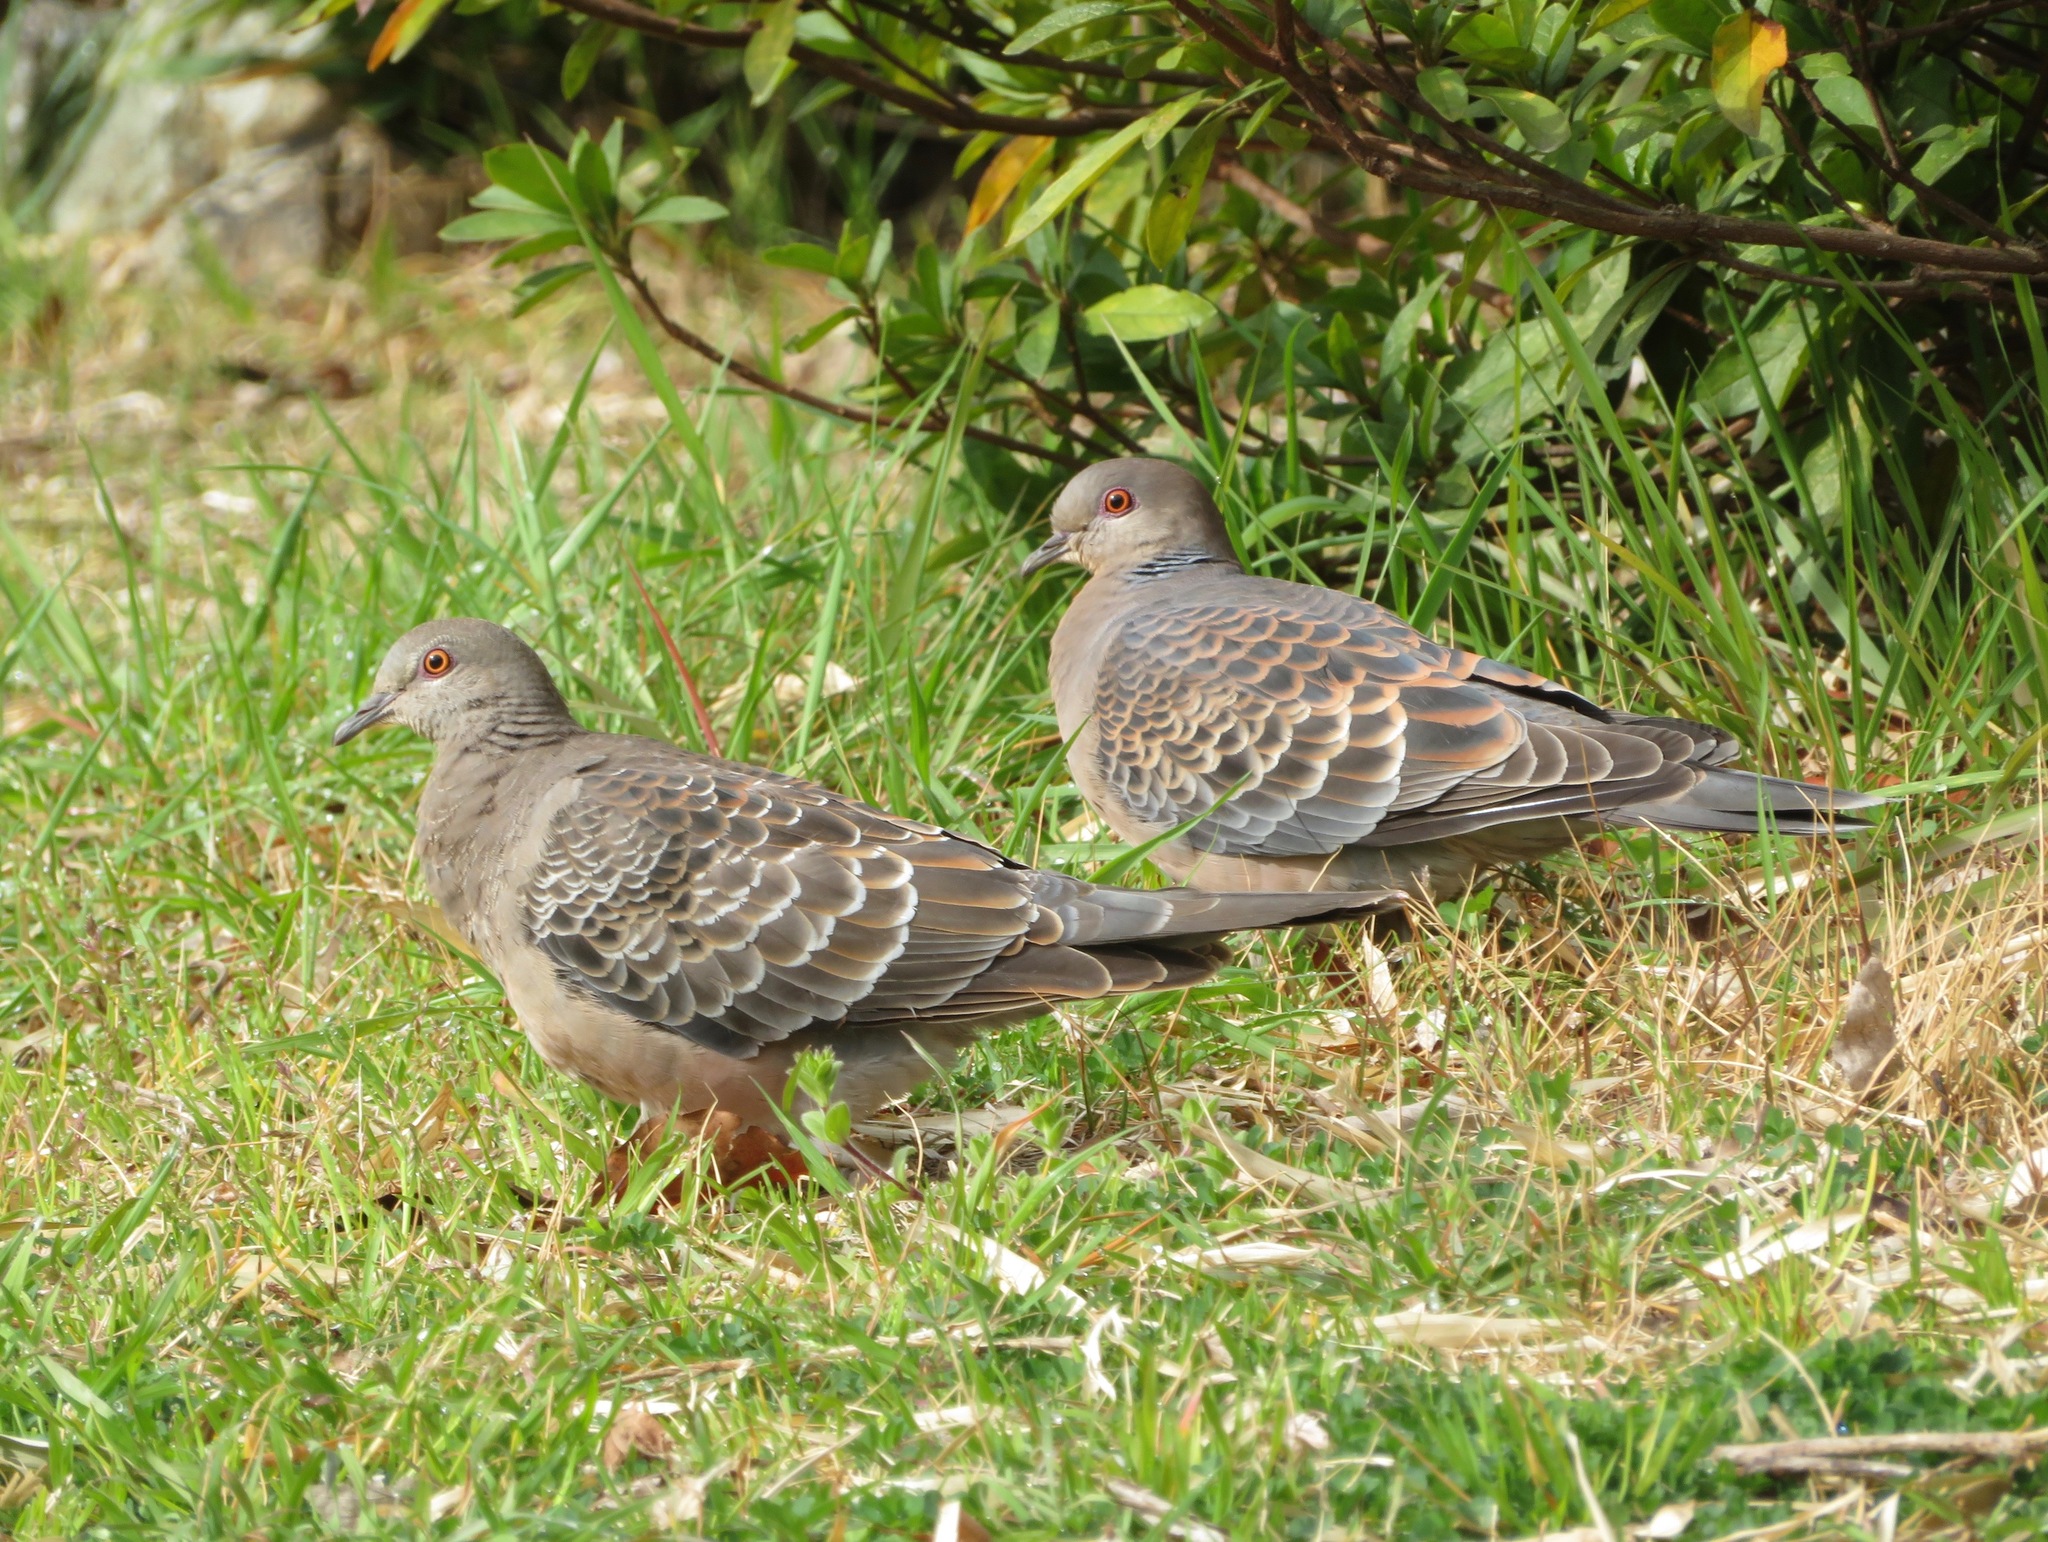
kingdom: Animalia
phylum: Chordata
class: Aves
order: Columbiformes
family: Columbidae
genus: Streptopelia
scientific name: Streptopelia orientalis
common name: Oriental turtle dove
